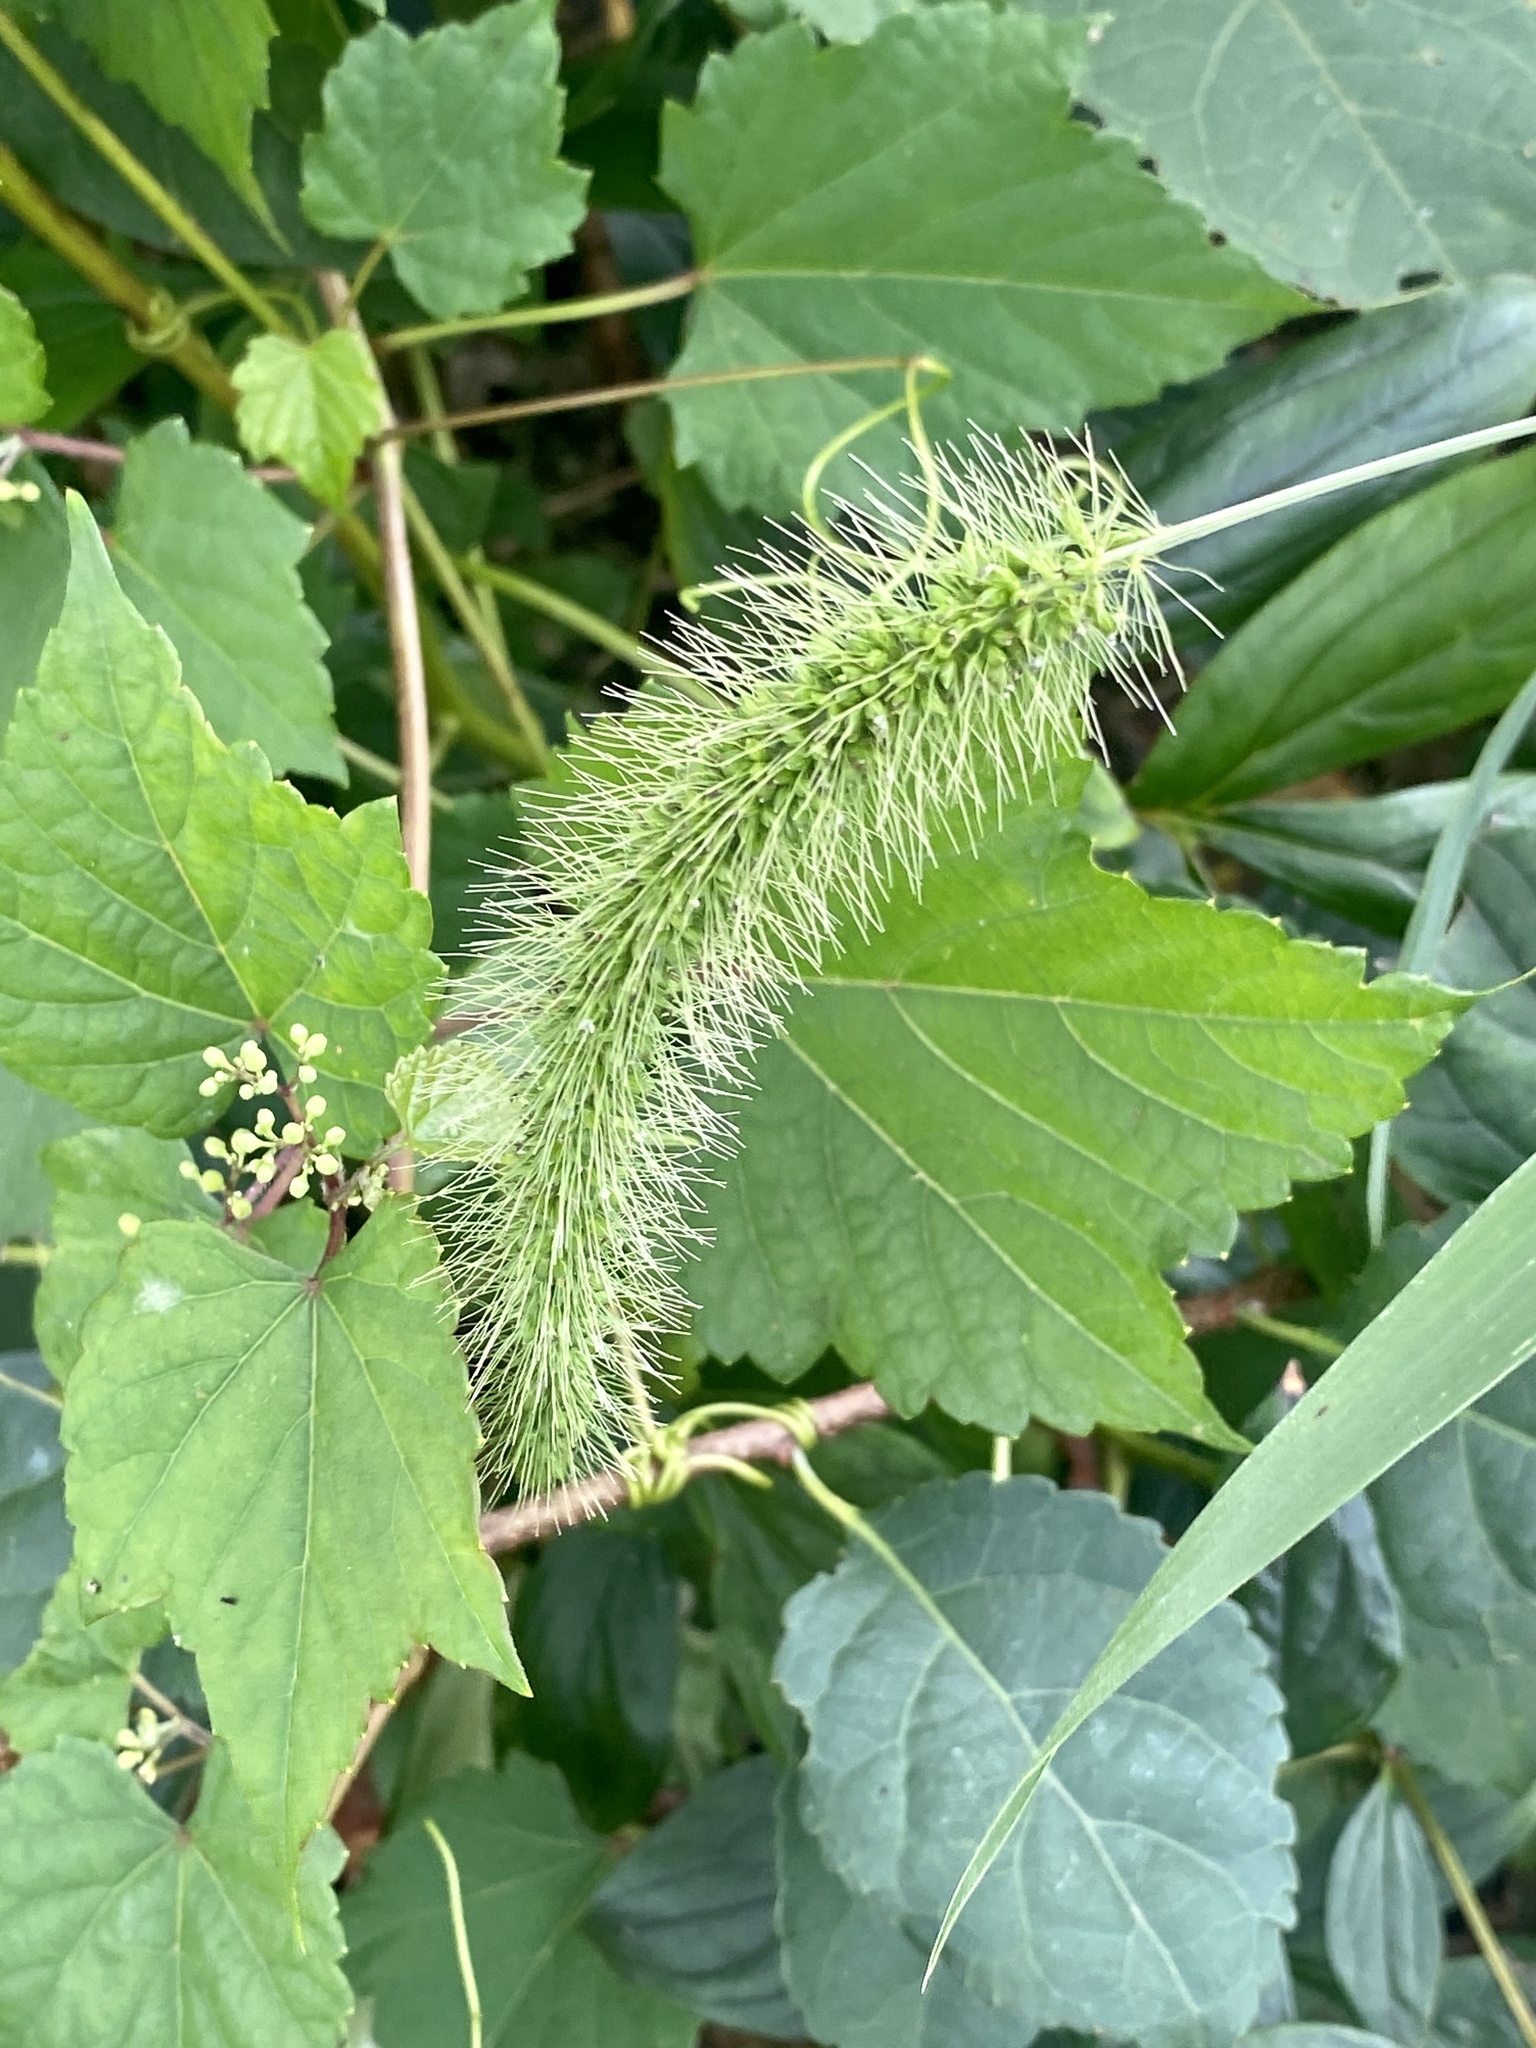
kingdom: Plantae
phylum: Tracheophyta
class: Liliopsida
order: Poales
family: Poaceae
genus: Setaria
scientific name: Setaria faberi
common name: Nodding bristle-grass
